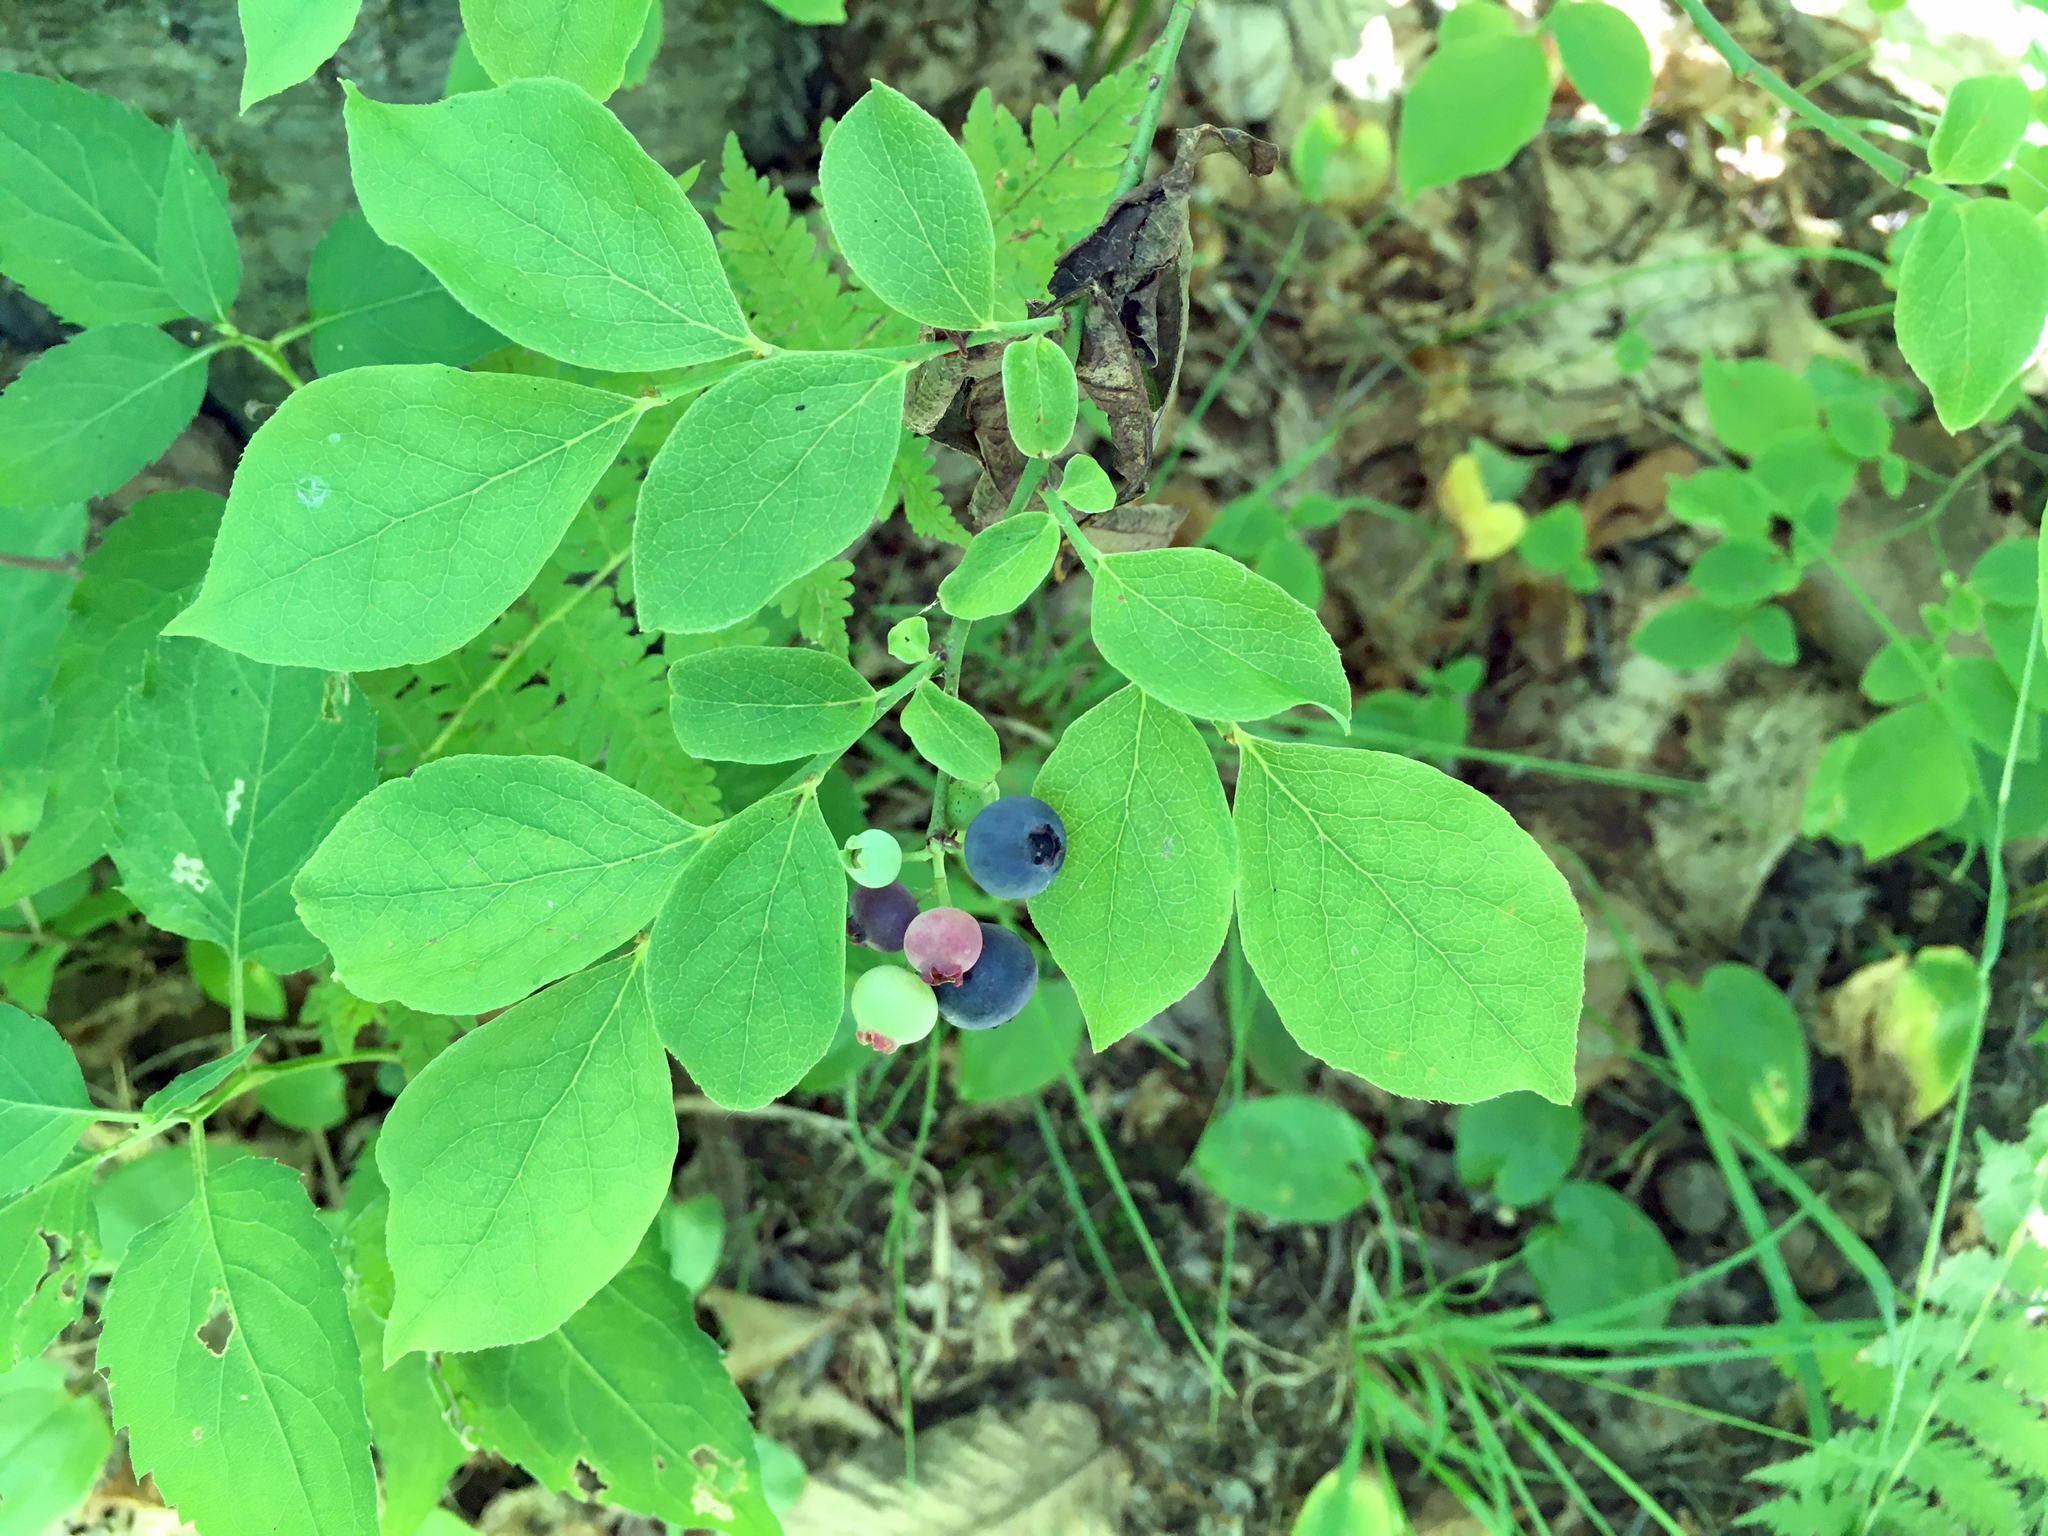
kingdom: Plantae
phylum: Tracheophyta
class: Magnoliopsida
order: Ericales
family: Ericaceae
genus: Vaccinium
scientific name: Vaccinium pallidum
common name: Blue ridge blueberry
